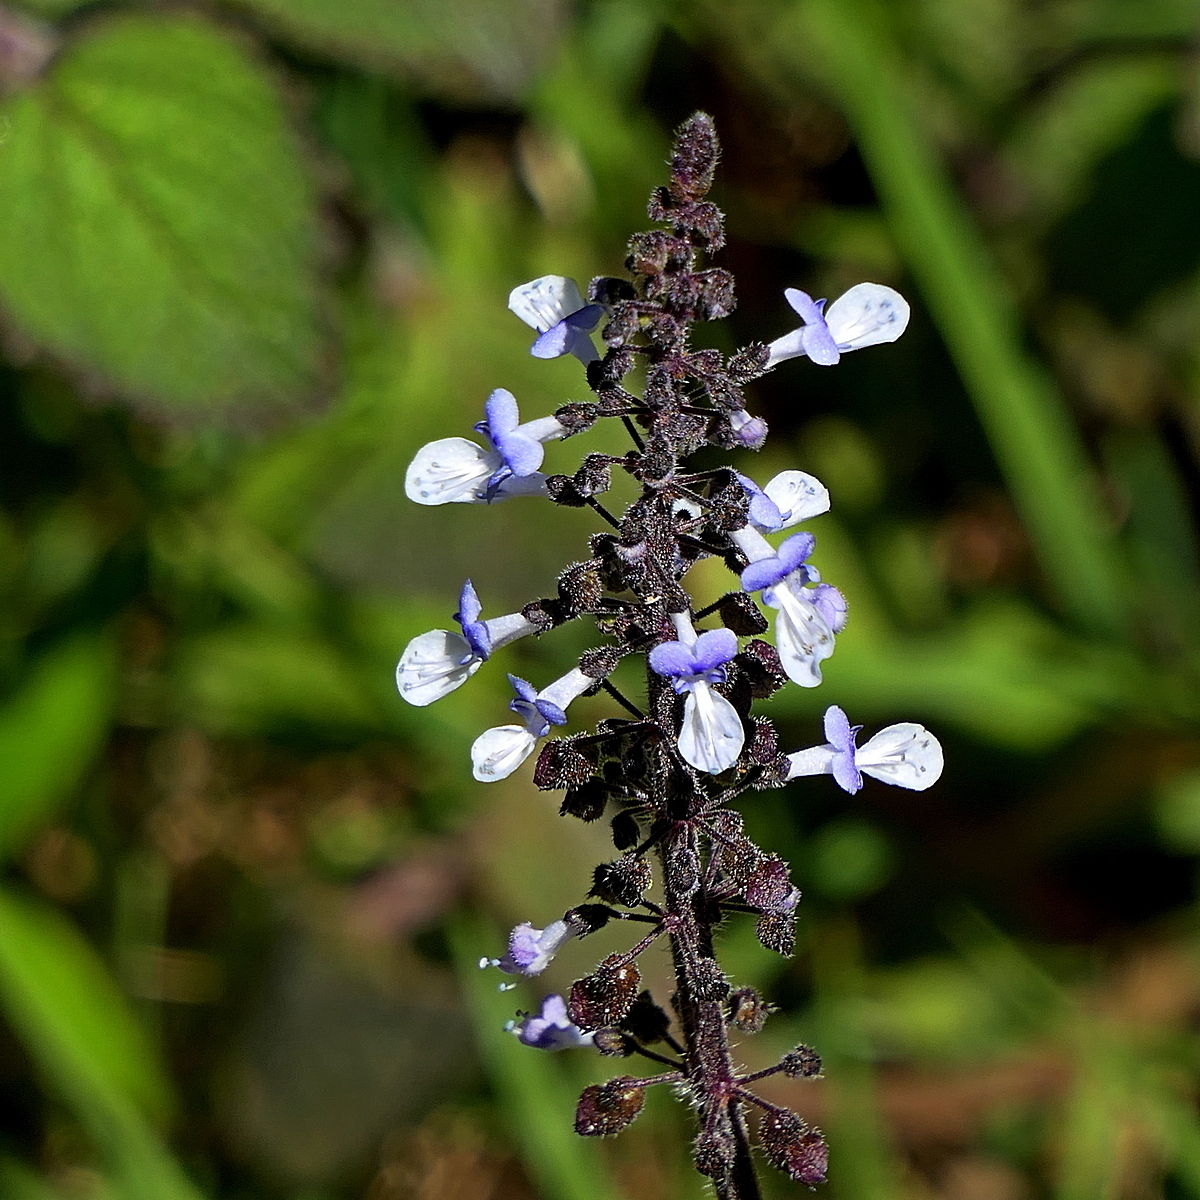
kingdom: Plantae
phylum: Tracheophyta
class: Magnoliopsida
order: Lamiales
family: Lamiaceae
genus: Coleus
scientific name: Coleus australis
